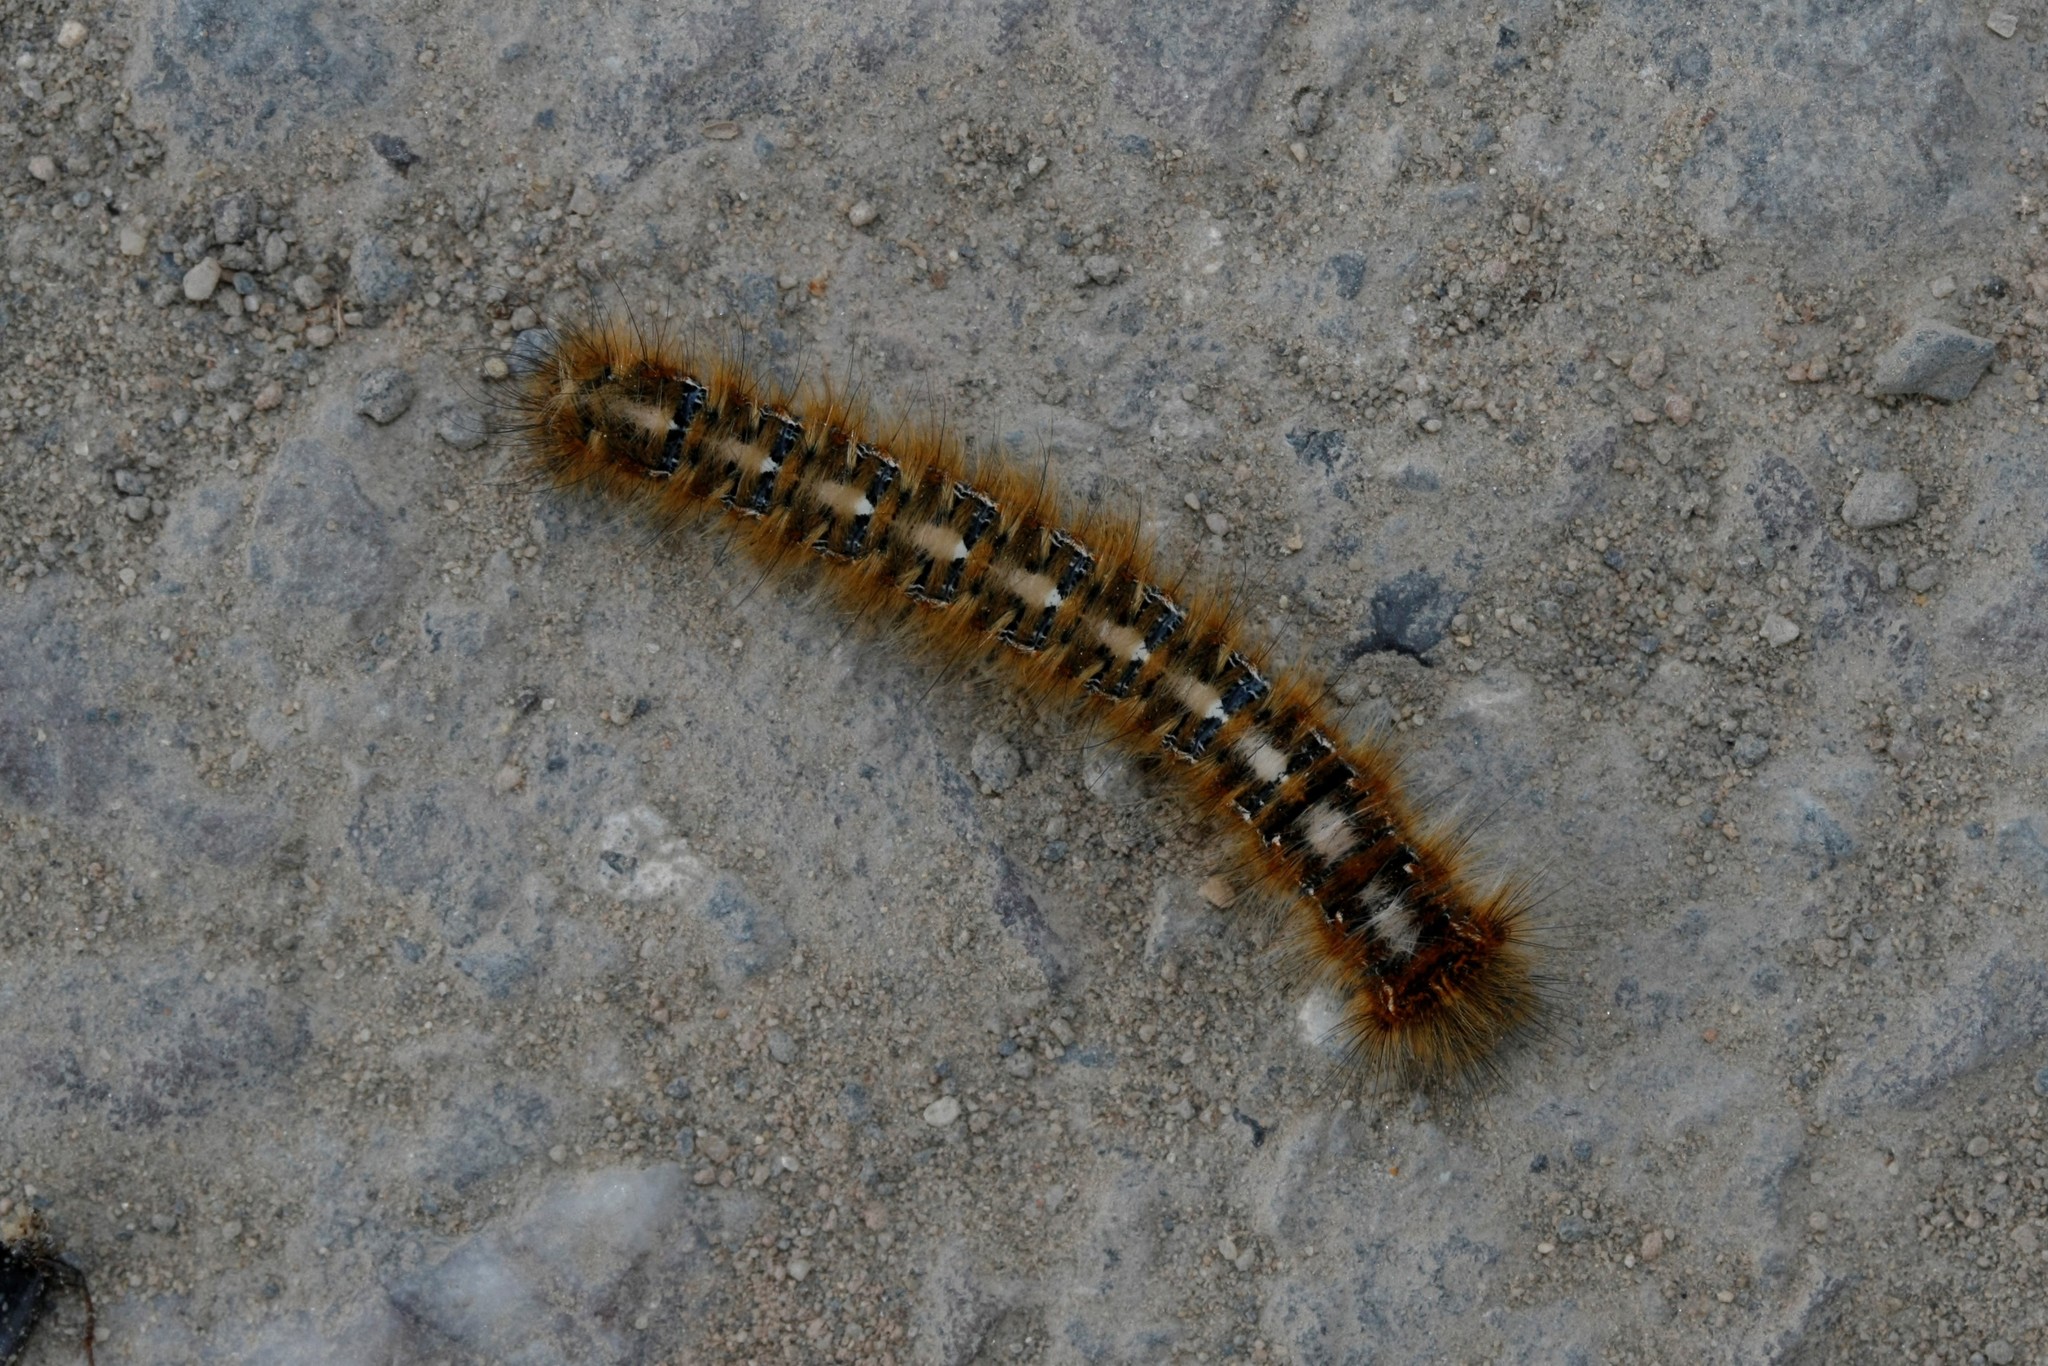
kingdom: Animalia
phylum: Arthropoda
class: Insecta
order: Lepidoptera
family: Lasiocampidae
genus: Lasiocampa
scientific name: Lasiocampa quercus
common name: Oak eggar
